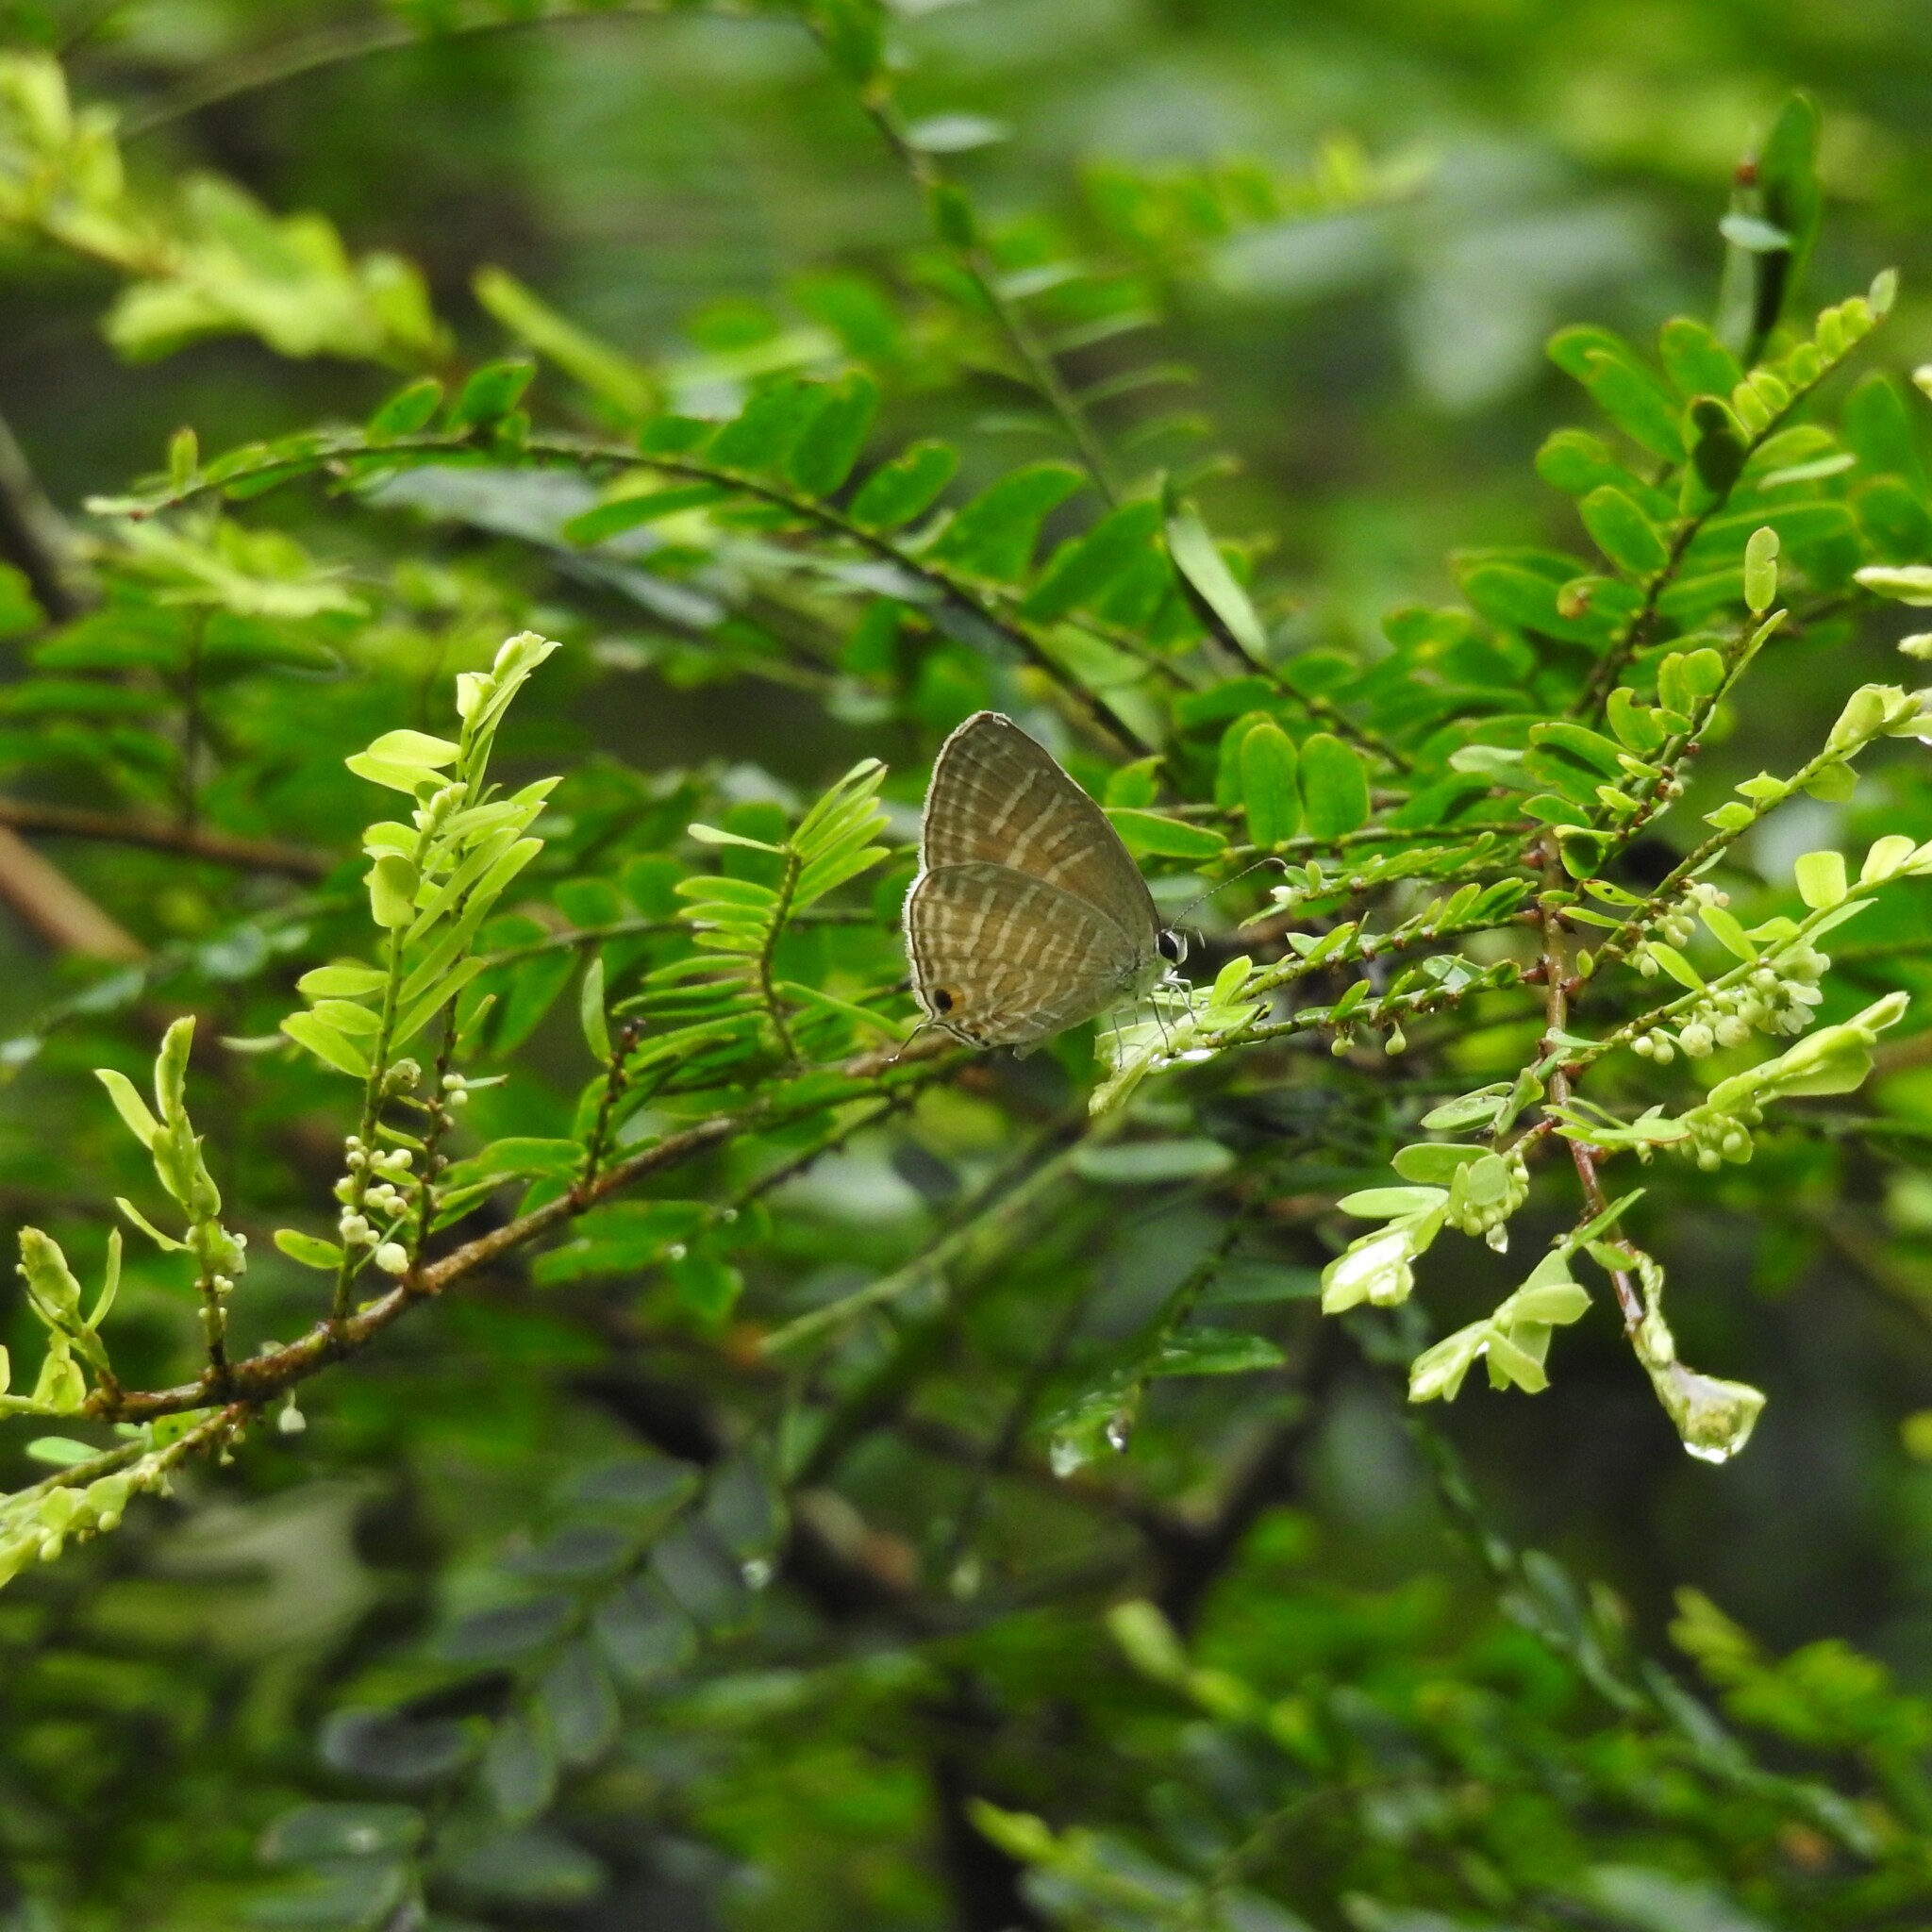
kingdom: Animalia
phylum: Arthropoda
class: Insecta
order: Lepidoptera
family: Lycaenidae
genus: Jamides
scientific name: Jamides celeno
